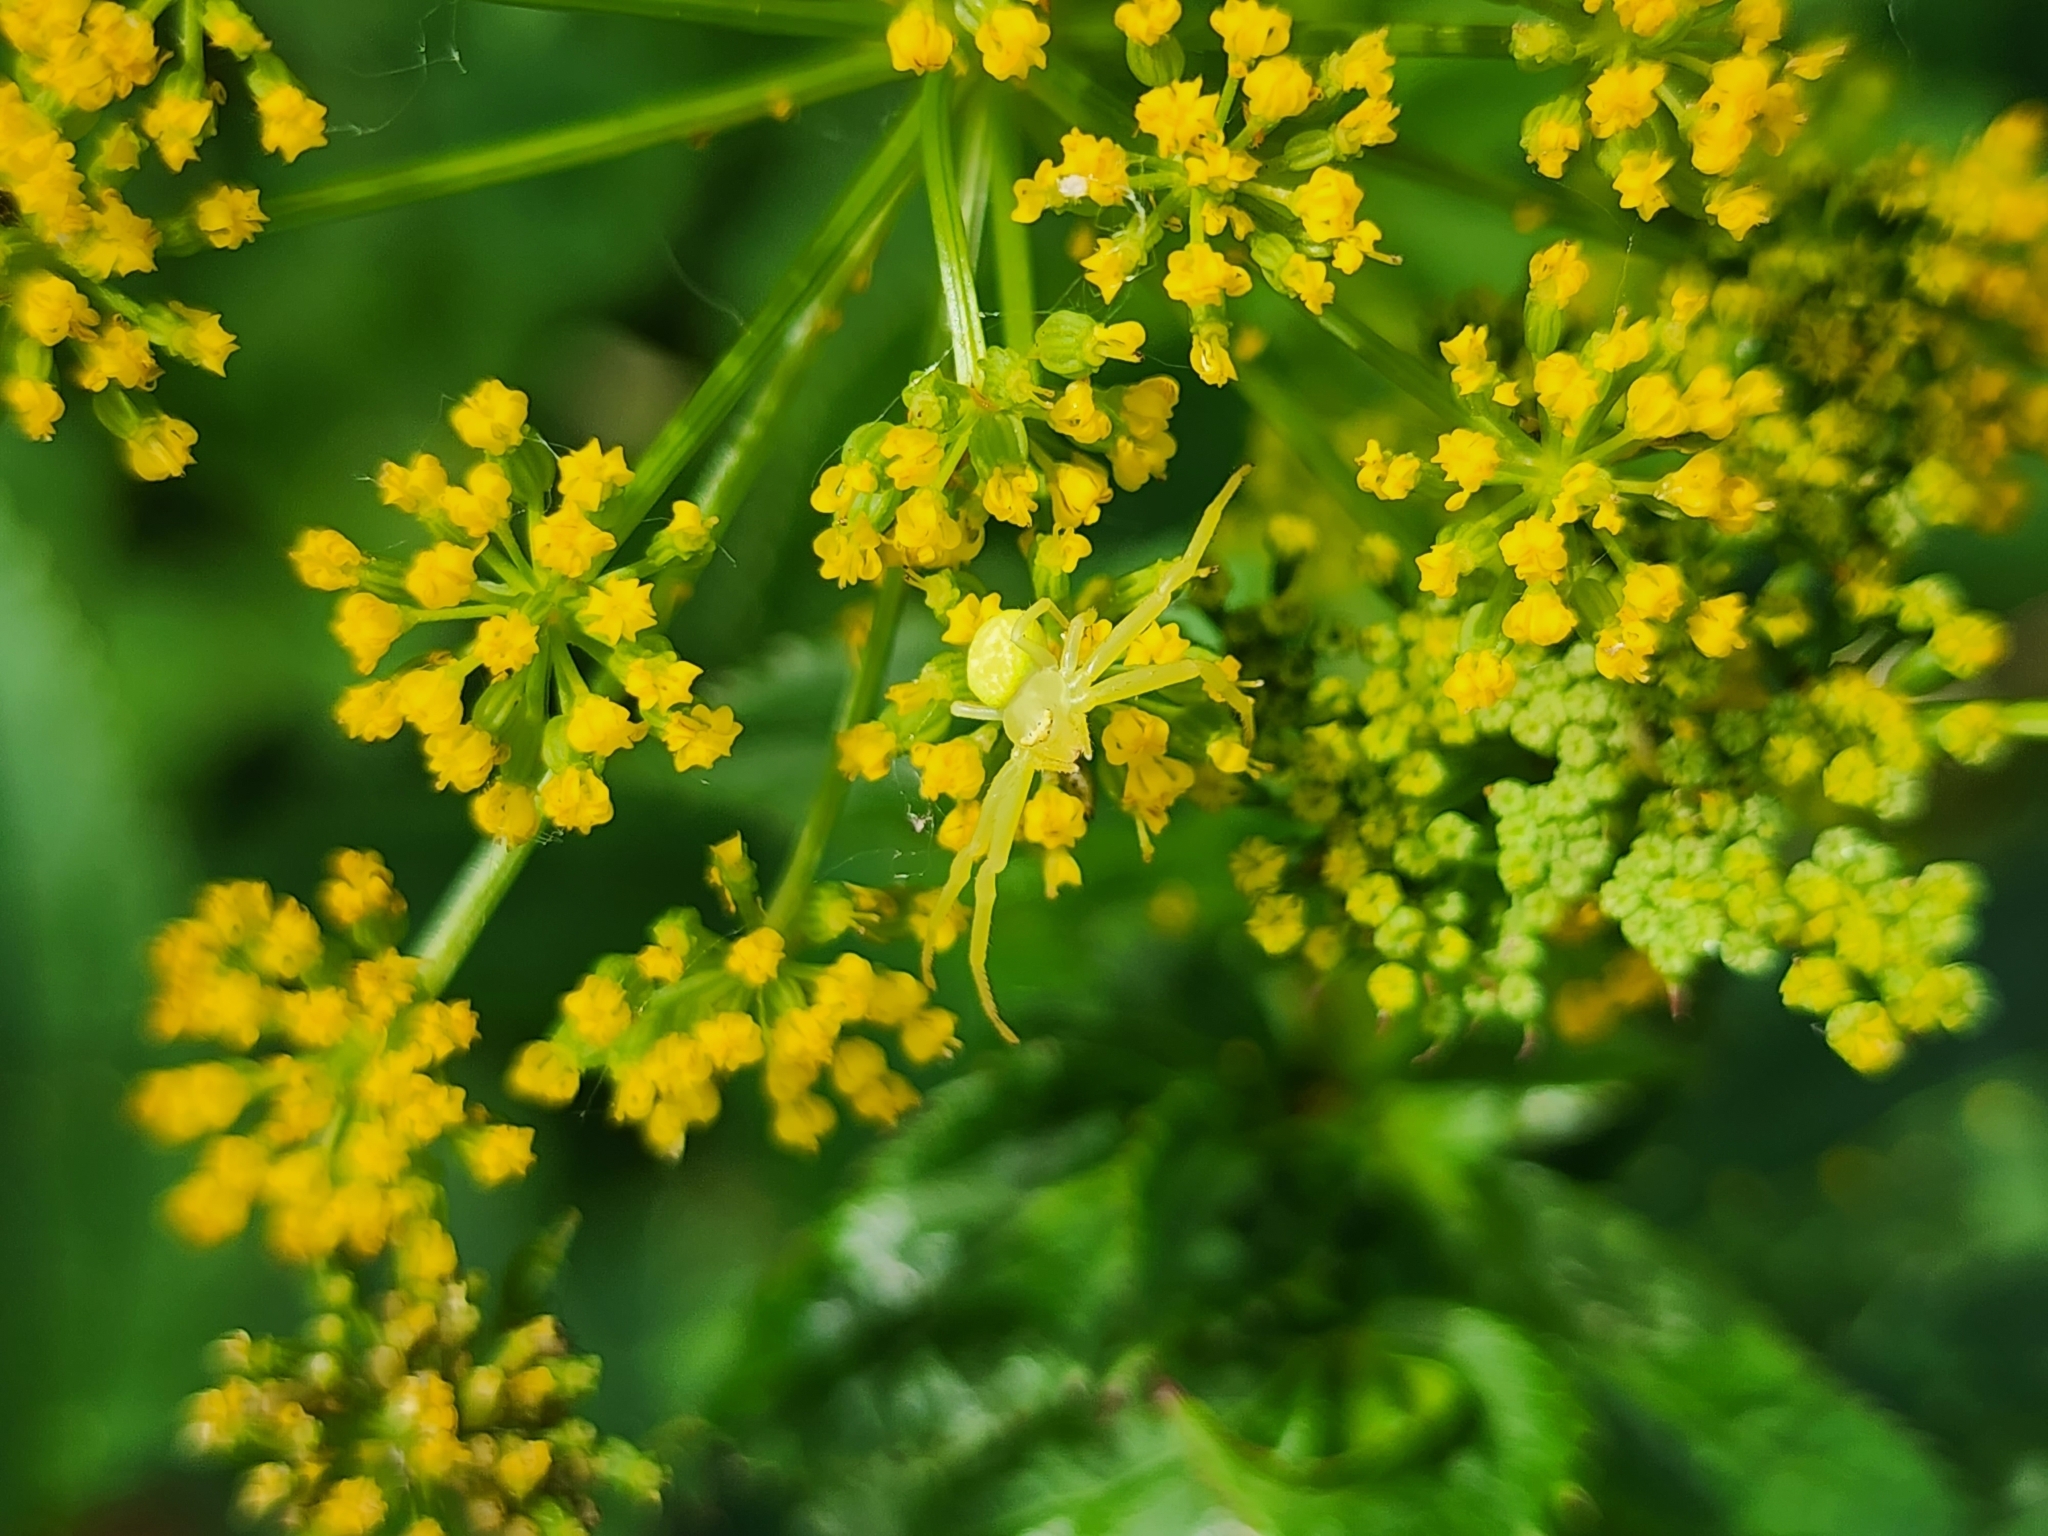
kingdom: Animalia
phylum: Arthropoda
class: Arachnida
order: Araneae
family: Thomisidae
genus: Misumessus
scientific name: Misumessus oblongus
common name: American green crab spider
